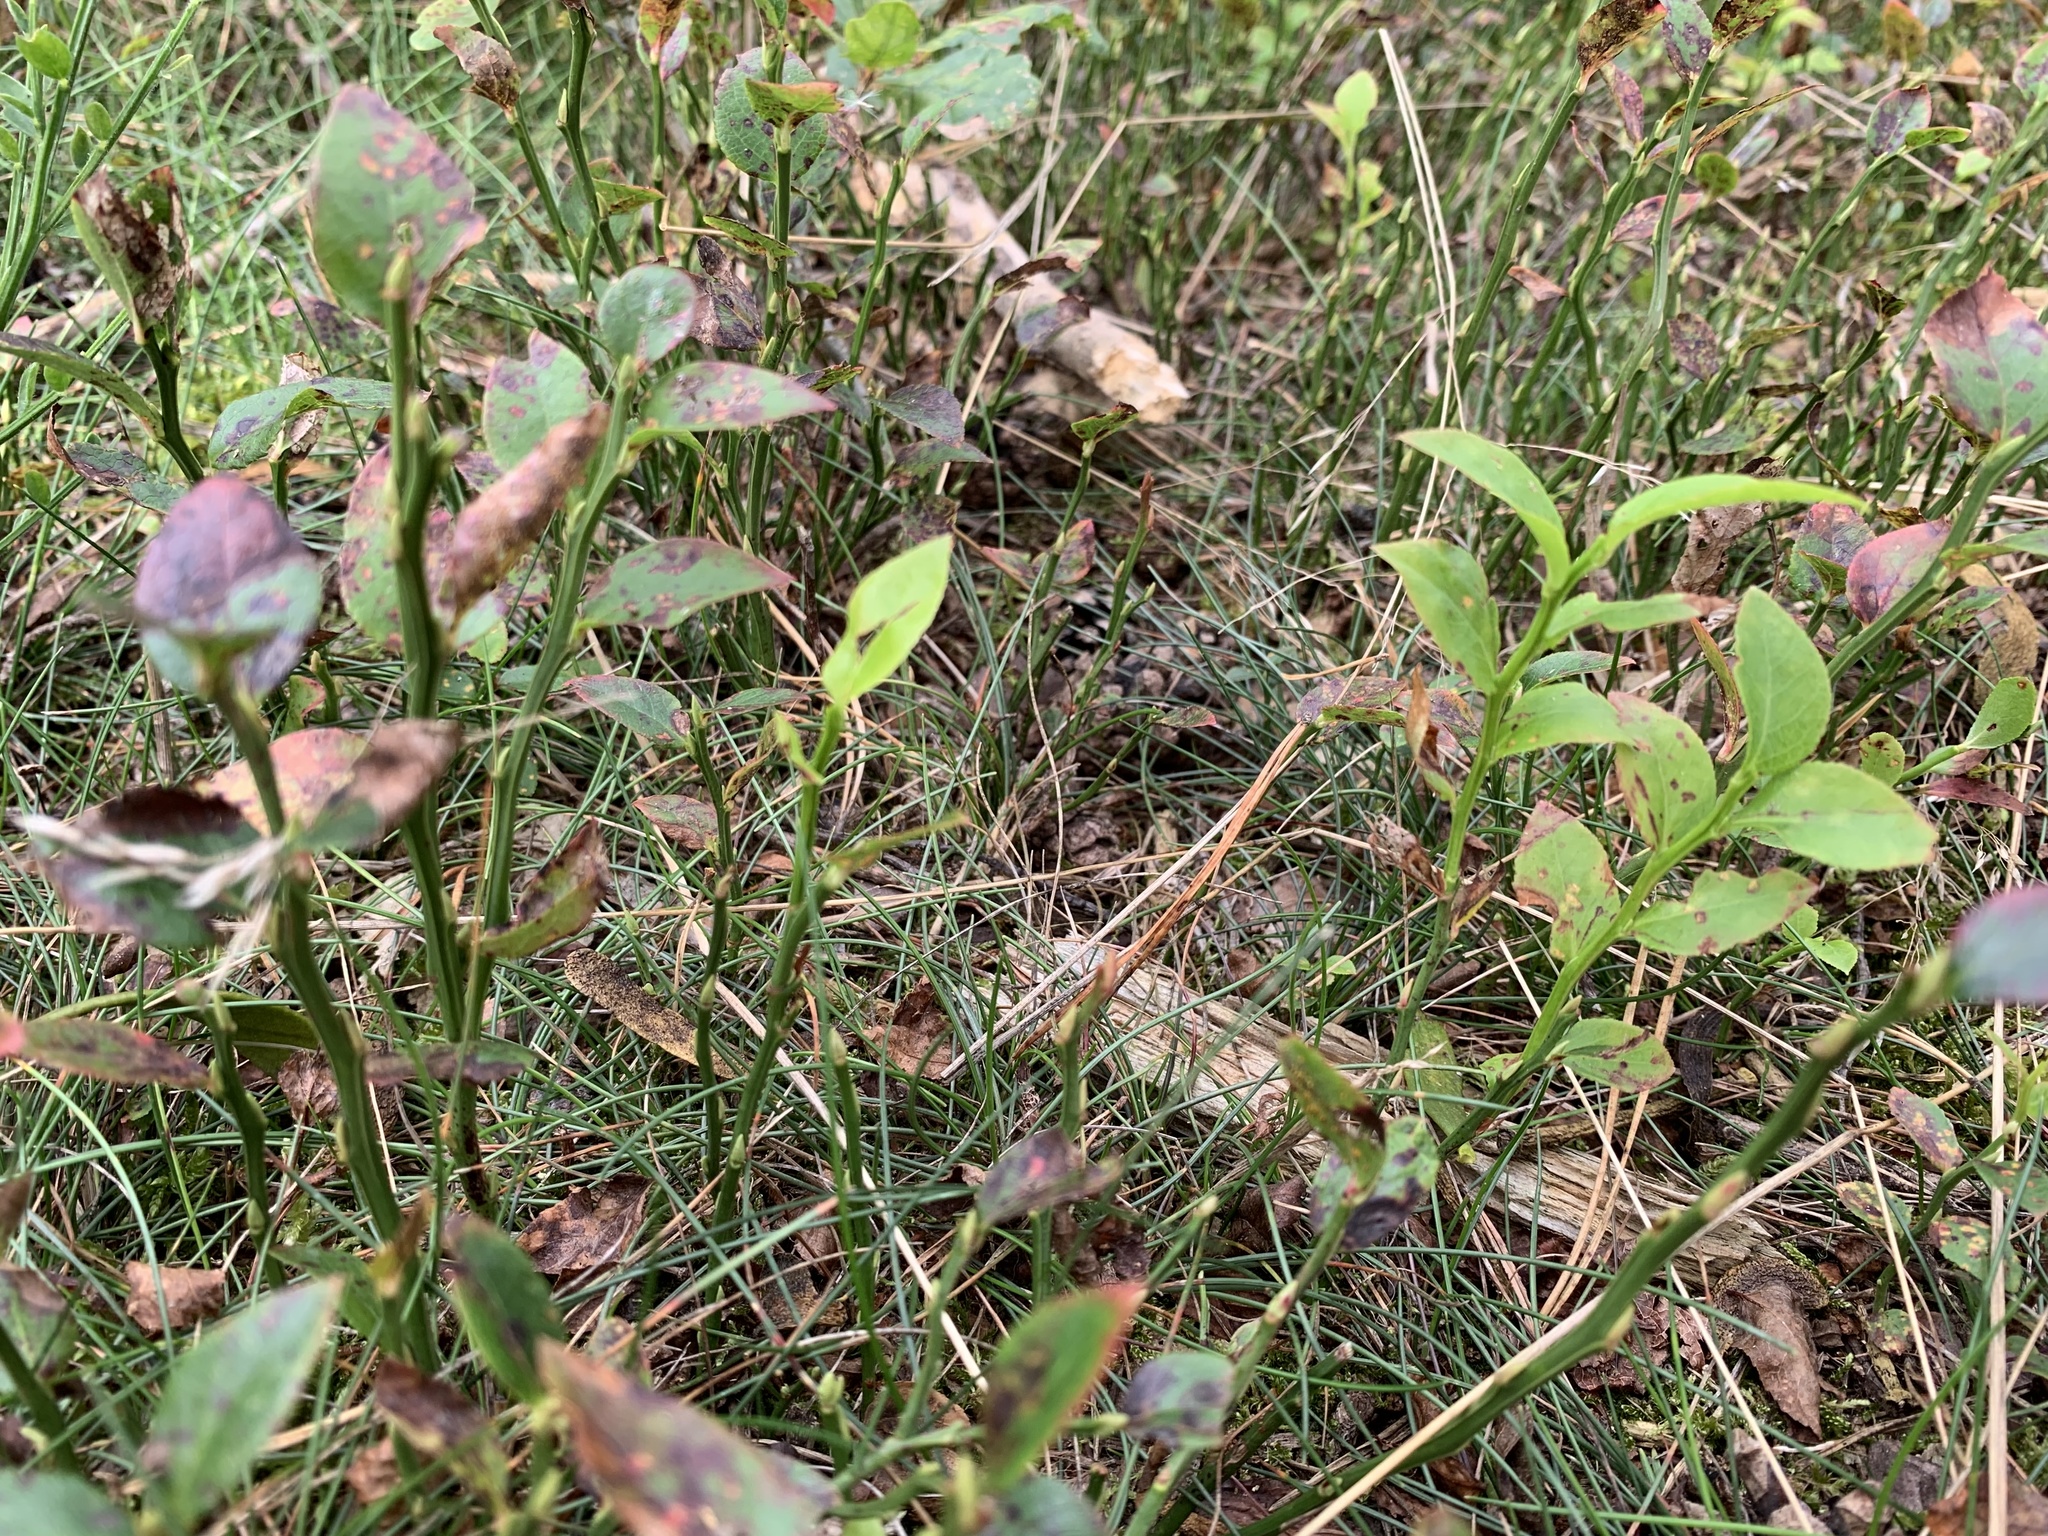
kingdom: Plantae
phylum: Tracheophyta
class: Magnoliopsida
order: Ericales
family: Ericaceae
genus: Vaccinium
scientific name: Vaccinium myrtillus
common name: Bilberry
